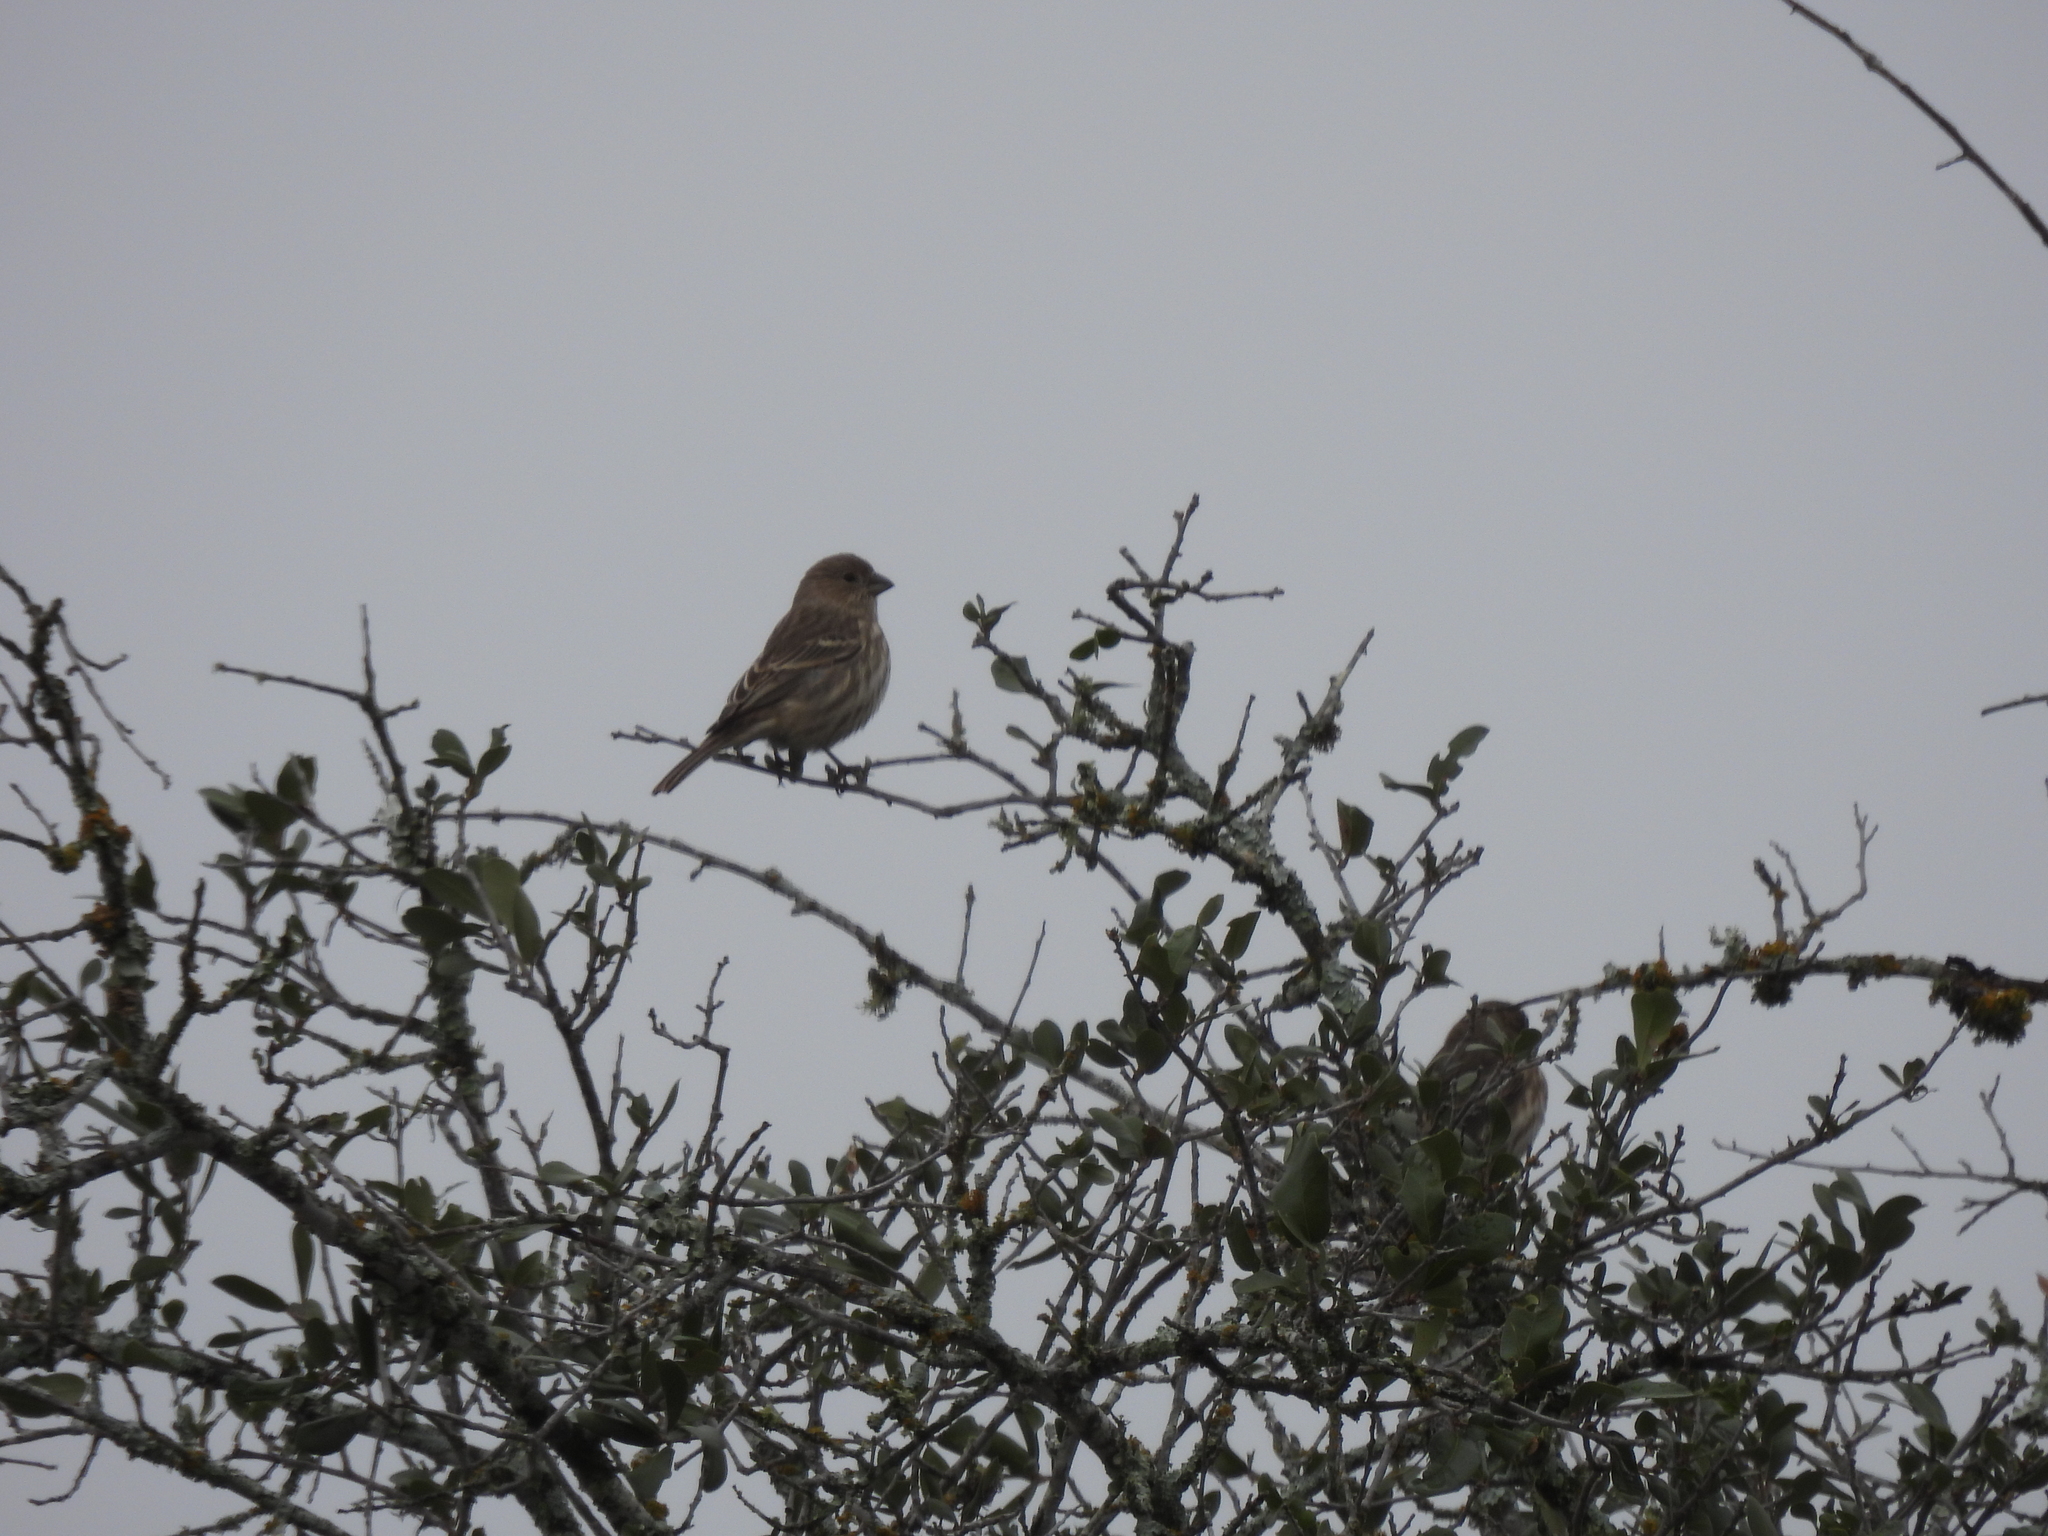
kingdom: Animalia
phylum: Chordata
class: Aves
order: Passeriformes
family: Fringillidae
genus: Haemorhous
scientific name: Haemorhous mexicanus
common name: House finch
